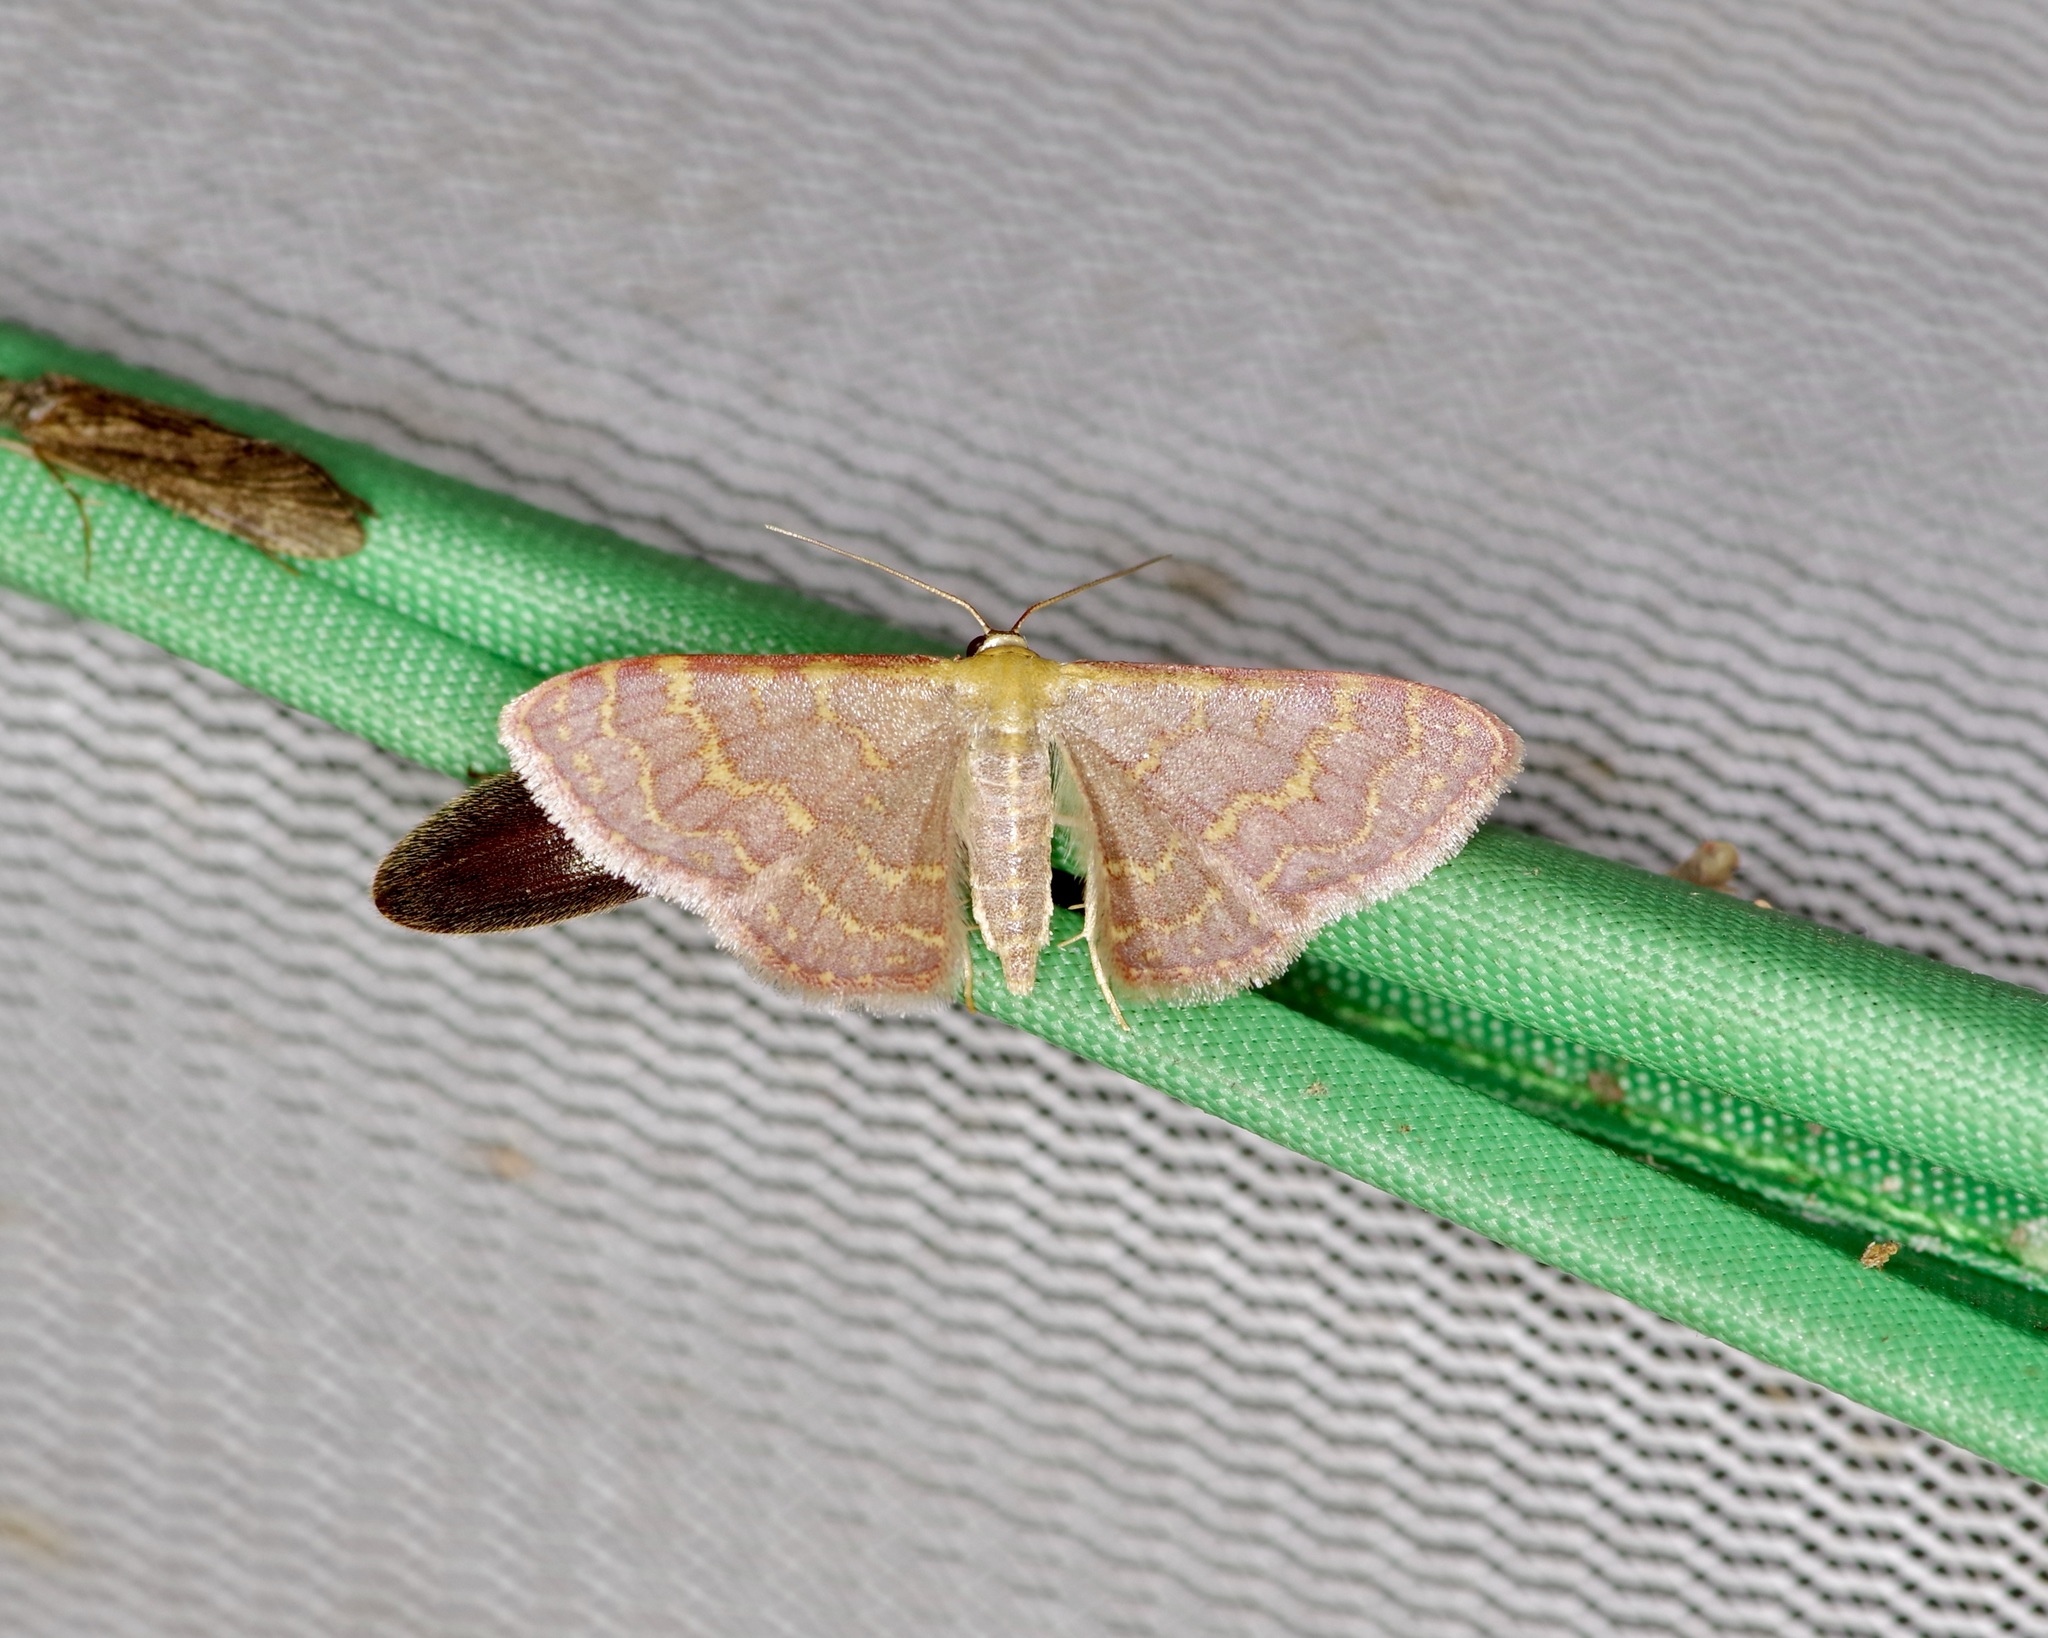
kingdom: Animalia
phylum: Arthropoda
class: Insecta
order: Lepidoptera
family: Geometridae
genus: Leptostales
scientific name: Leptostales pannaria
